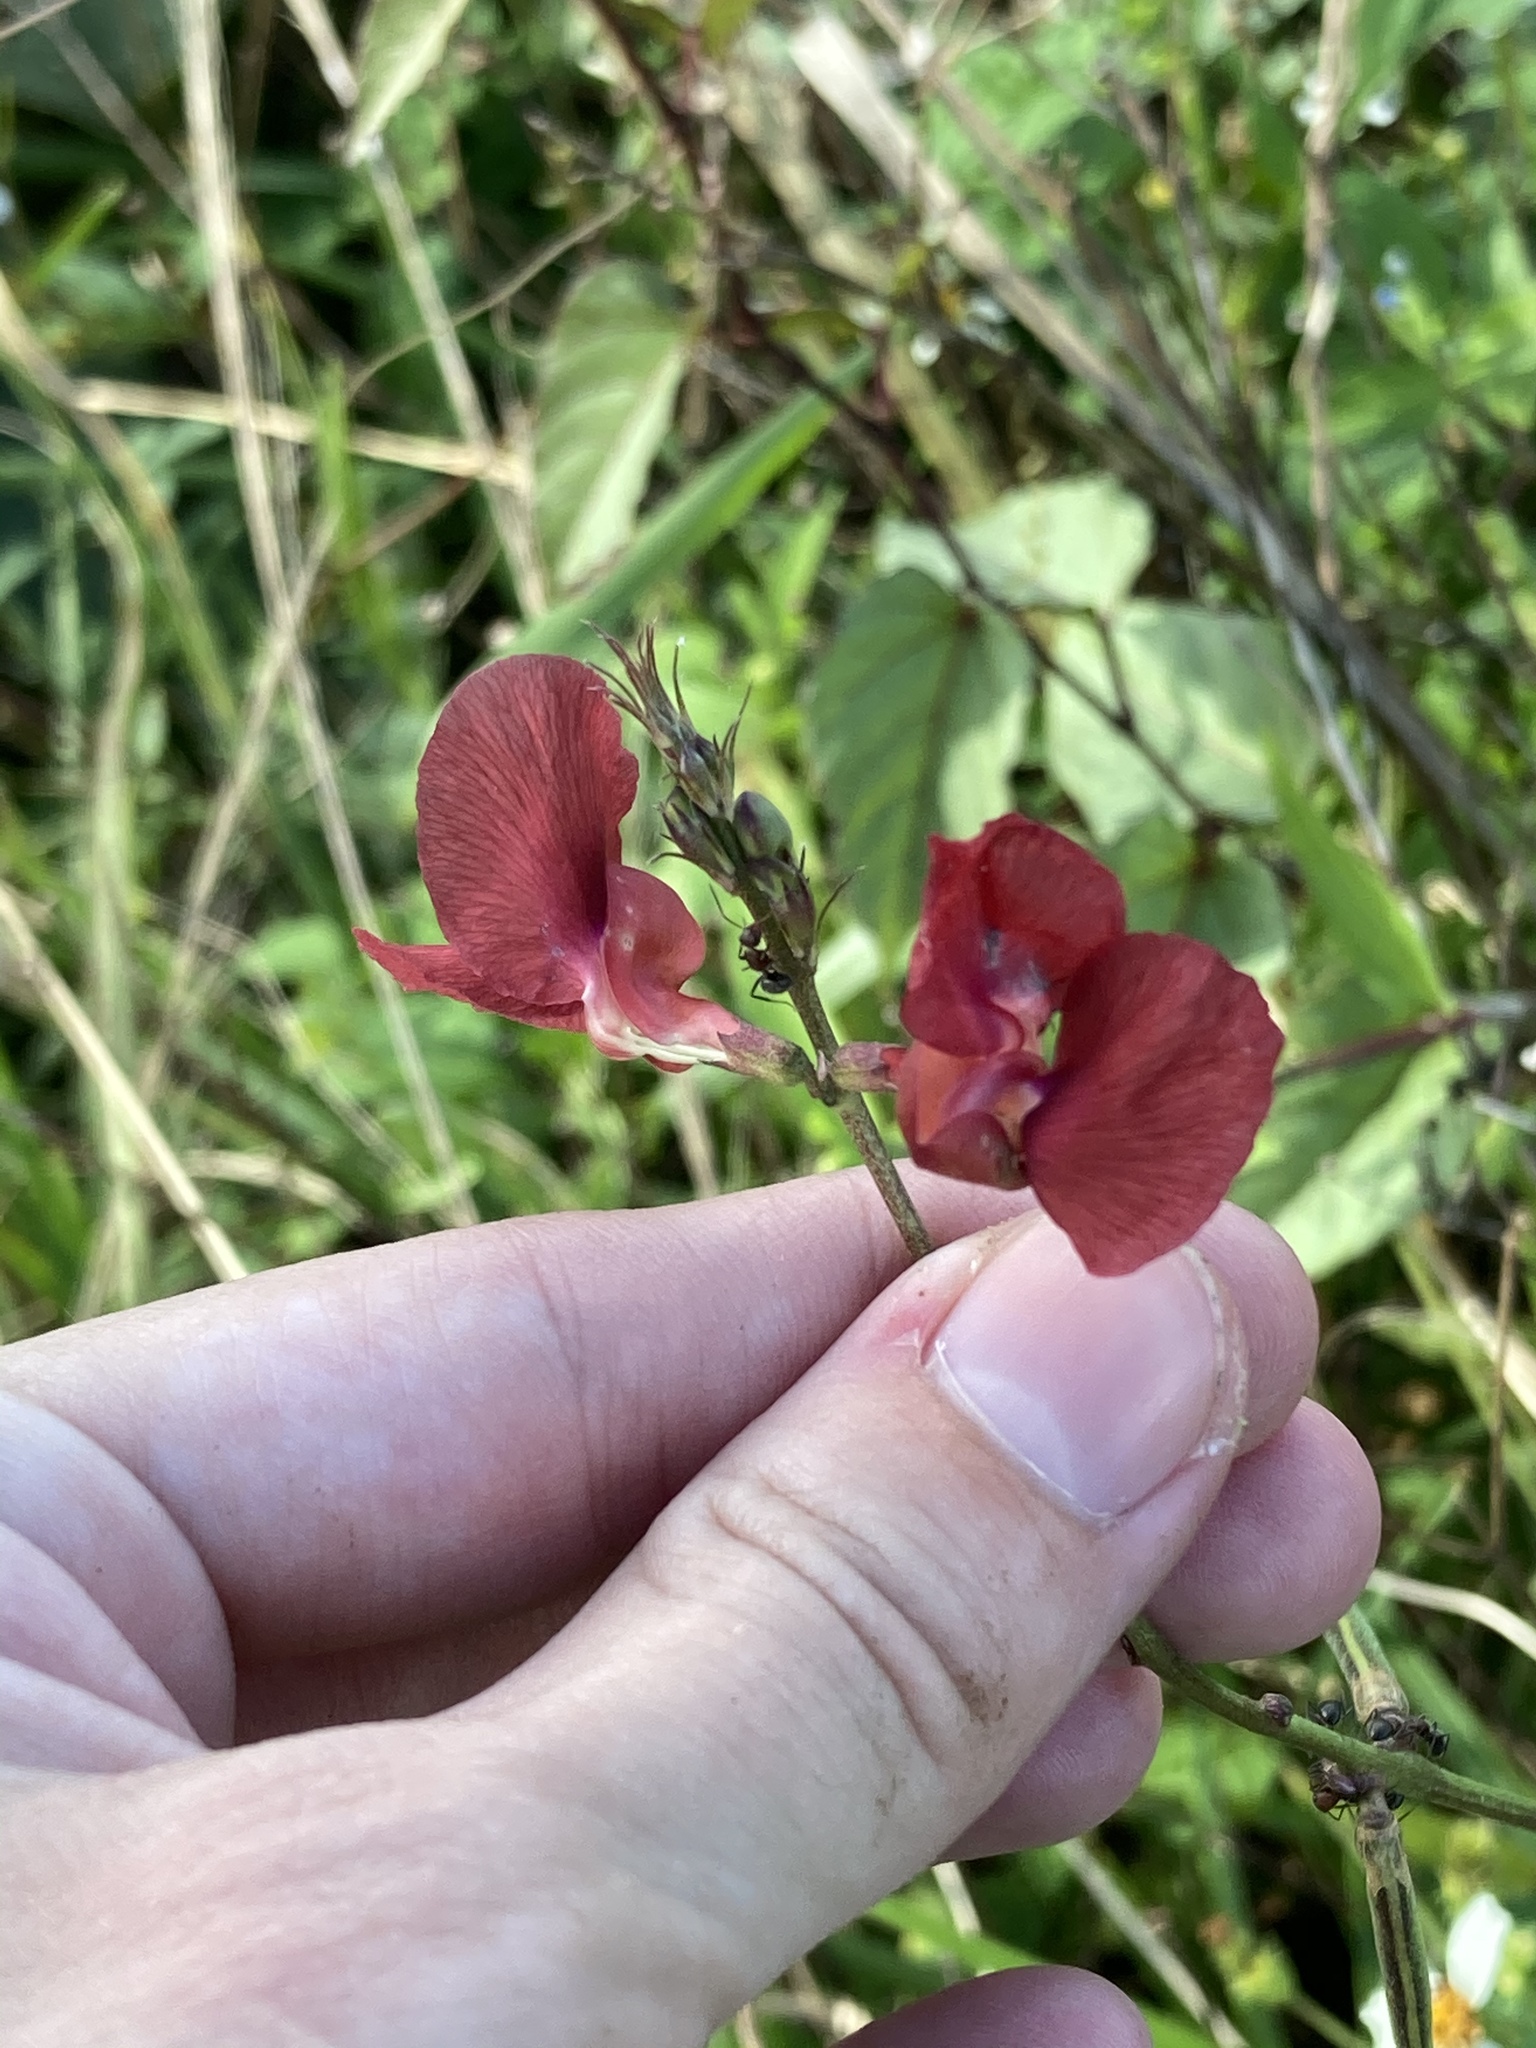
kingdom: Plantae
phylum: Tracheophyta
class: Magnoliopsida
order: Fabales
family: Fabaceae
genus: Macroptilium
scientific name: Macroptilium lathyroides
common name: Wild bushbean
